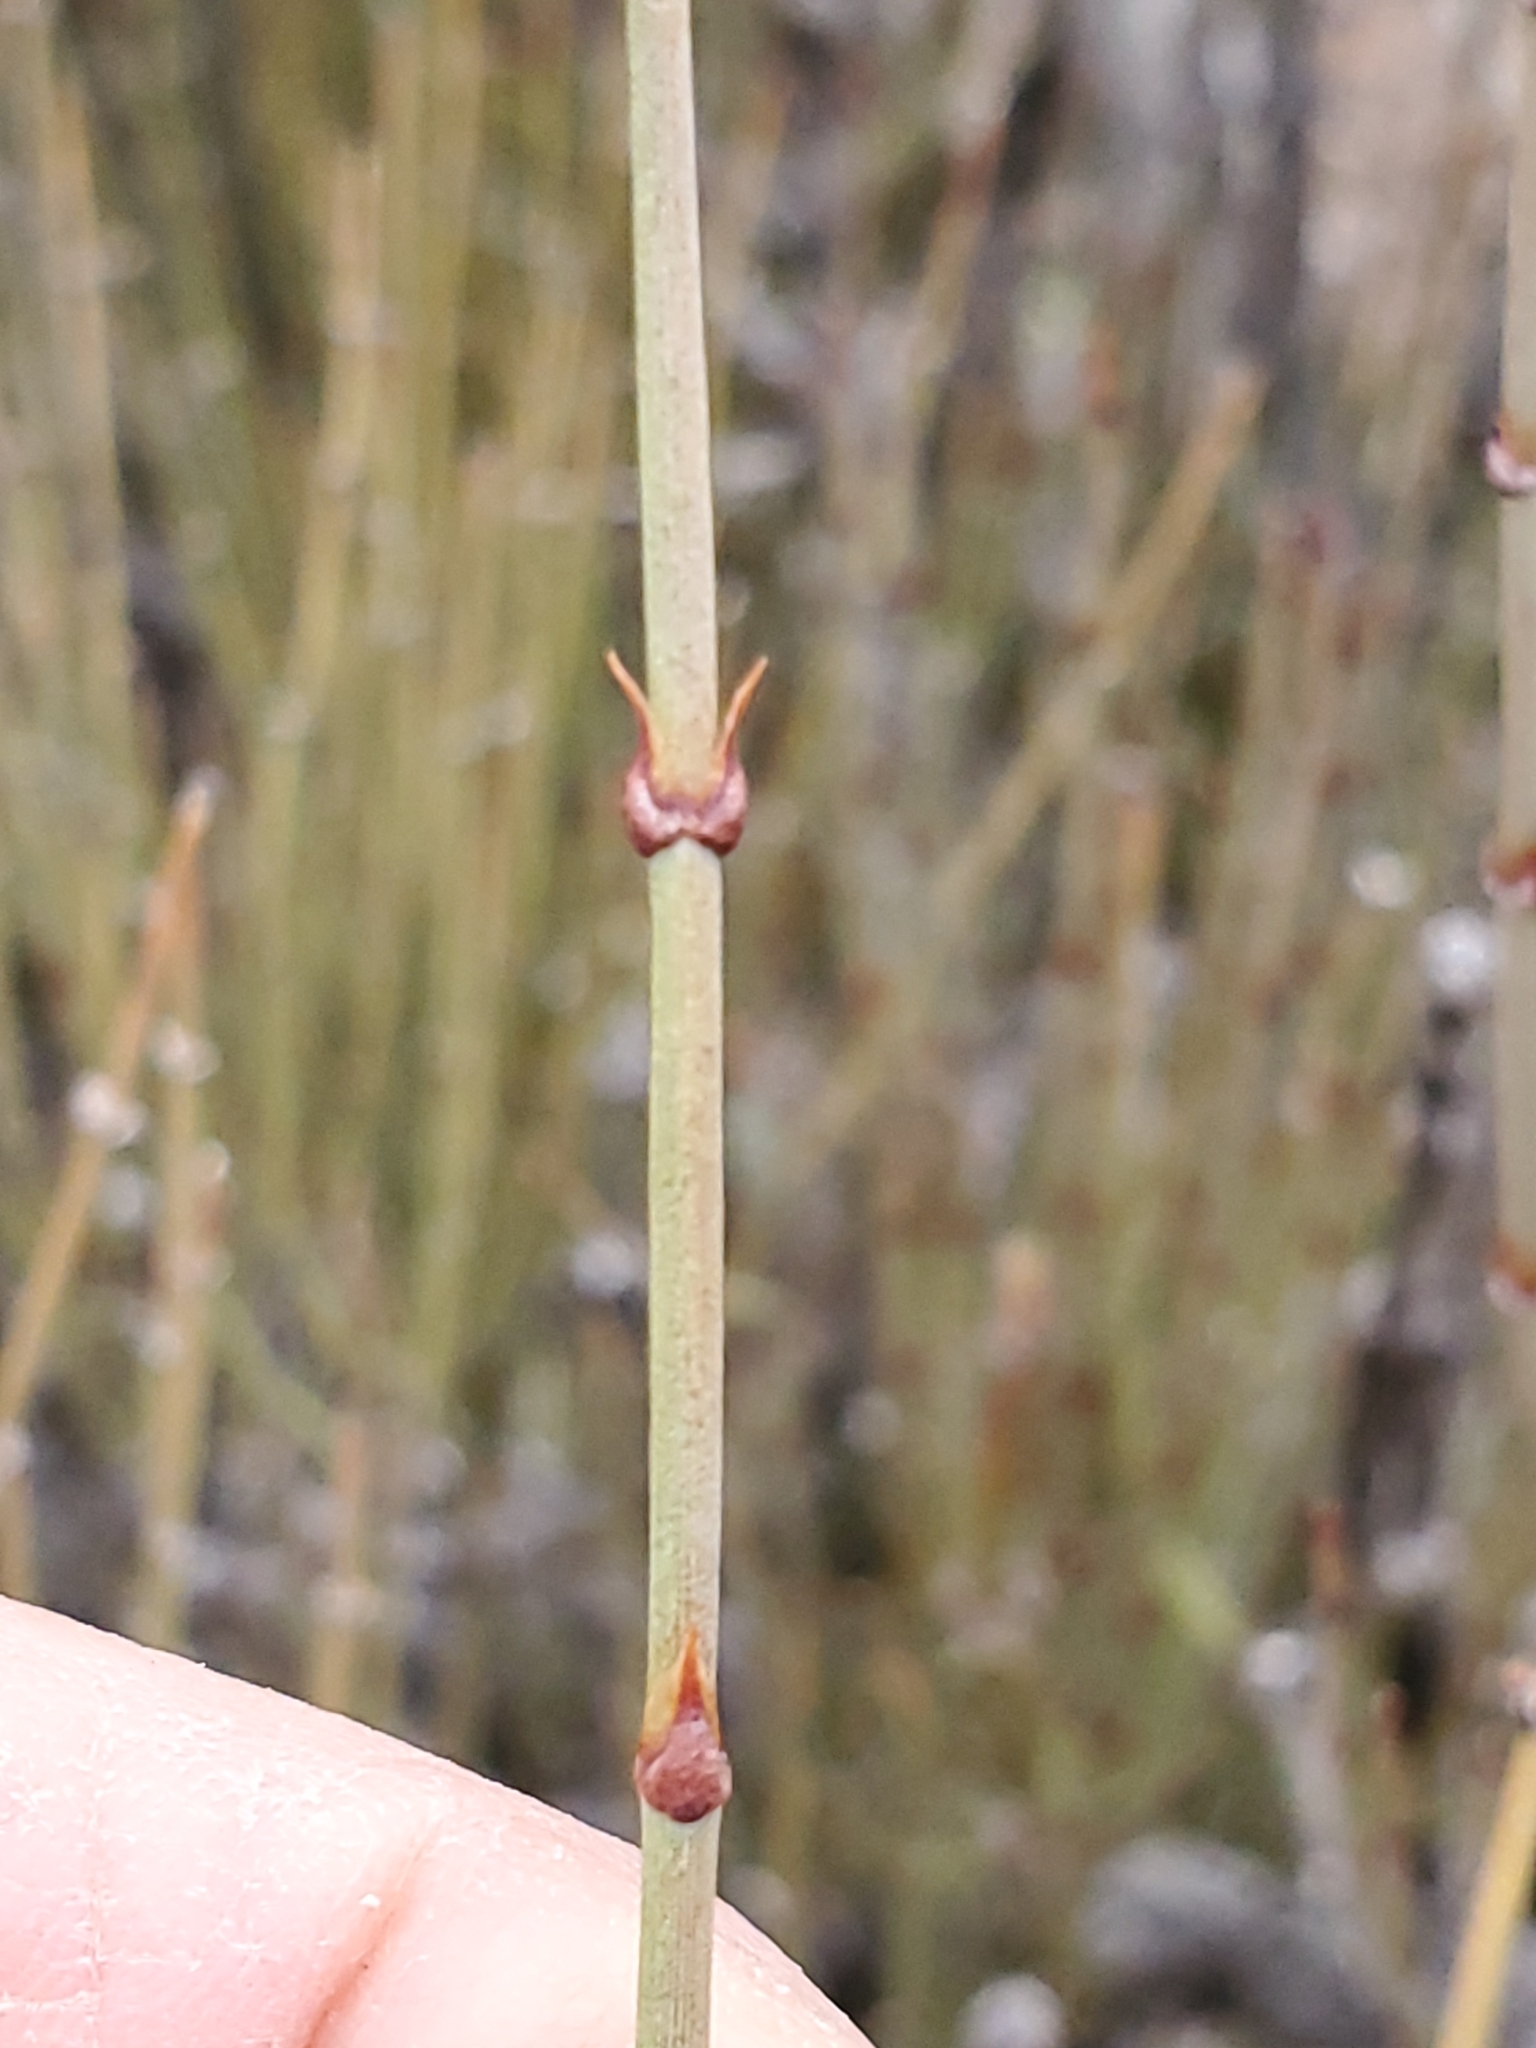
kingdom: Plantae
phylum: Tracheophyta
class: Gnetopsida
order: Ephedrales
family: Ephedraceae
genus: Ephedra
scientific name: Ephedra viridis
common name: Green ephedra
